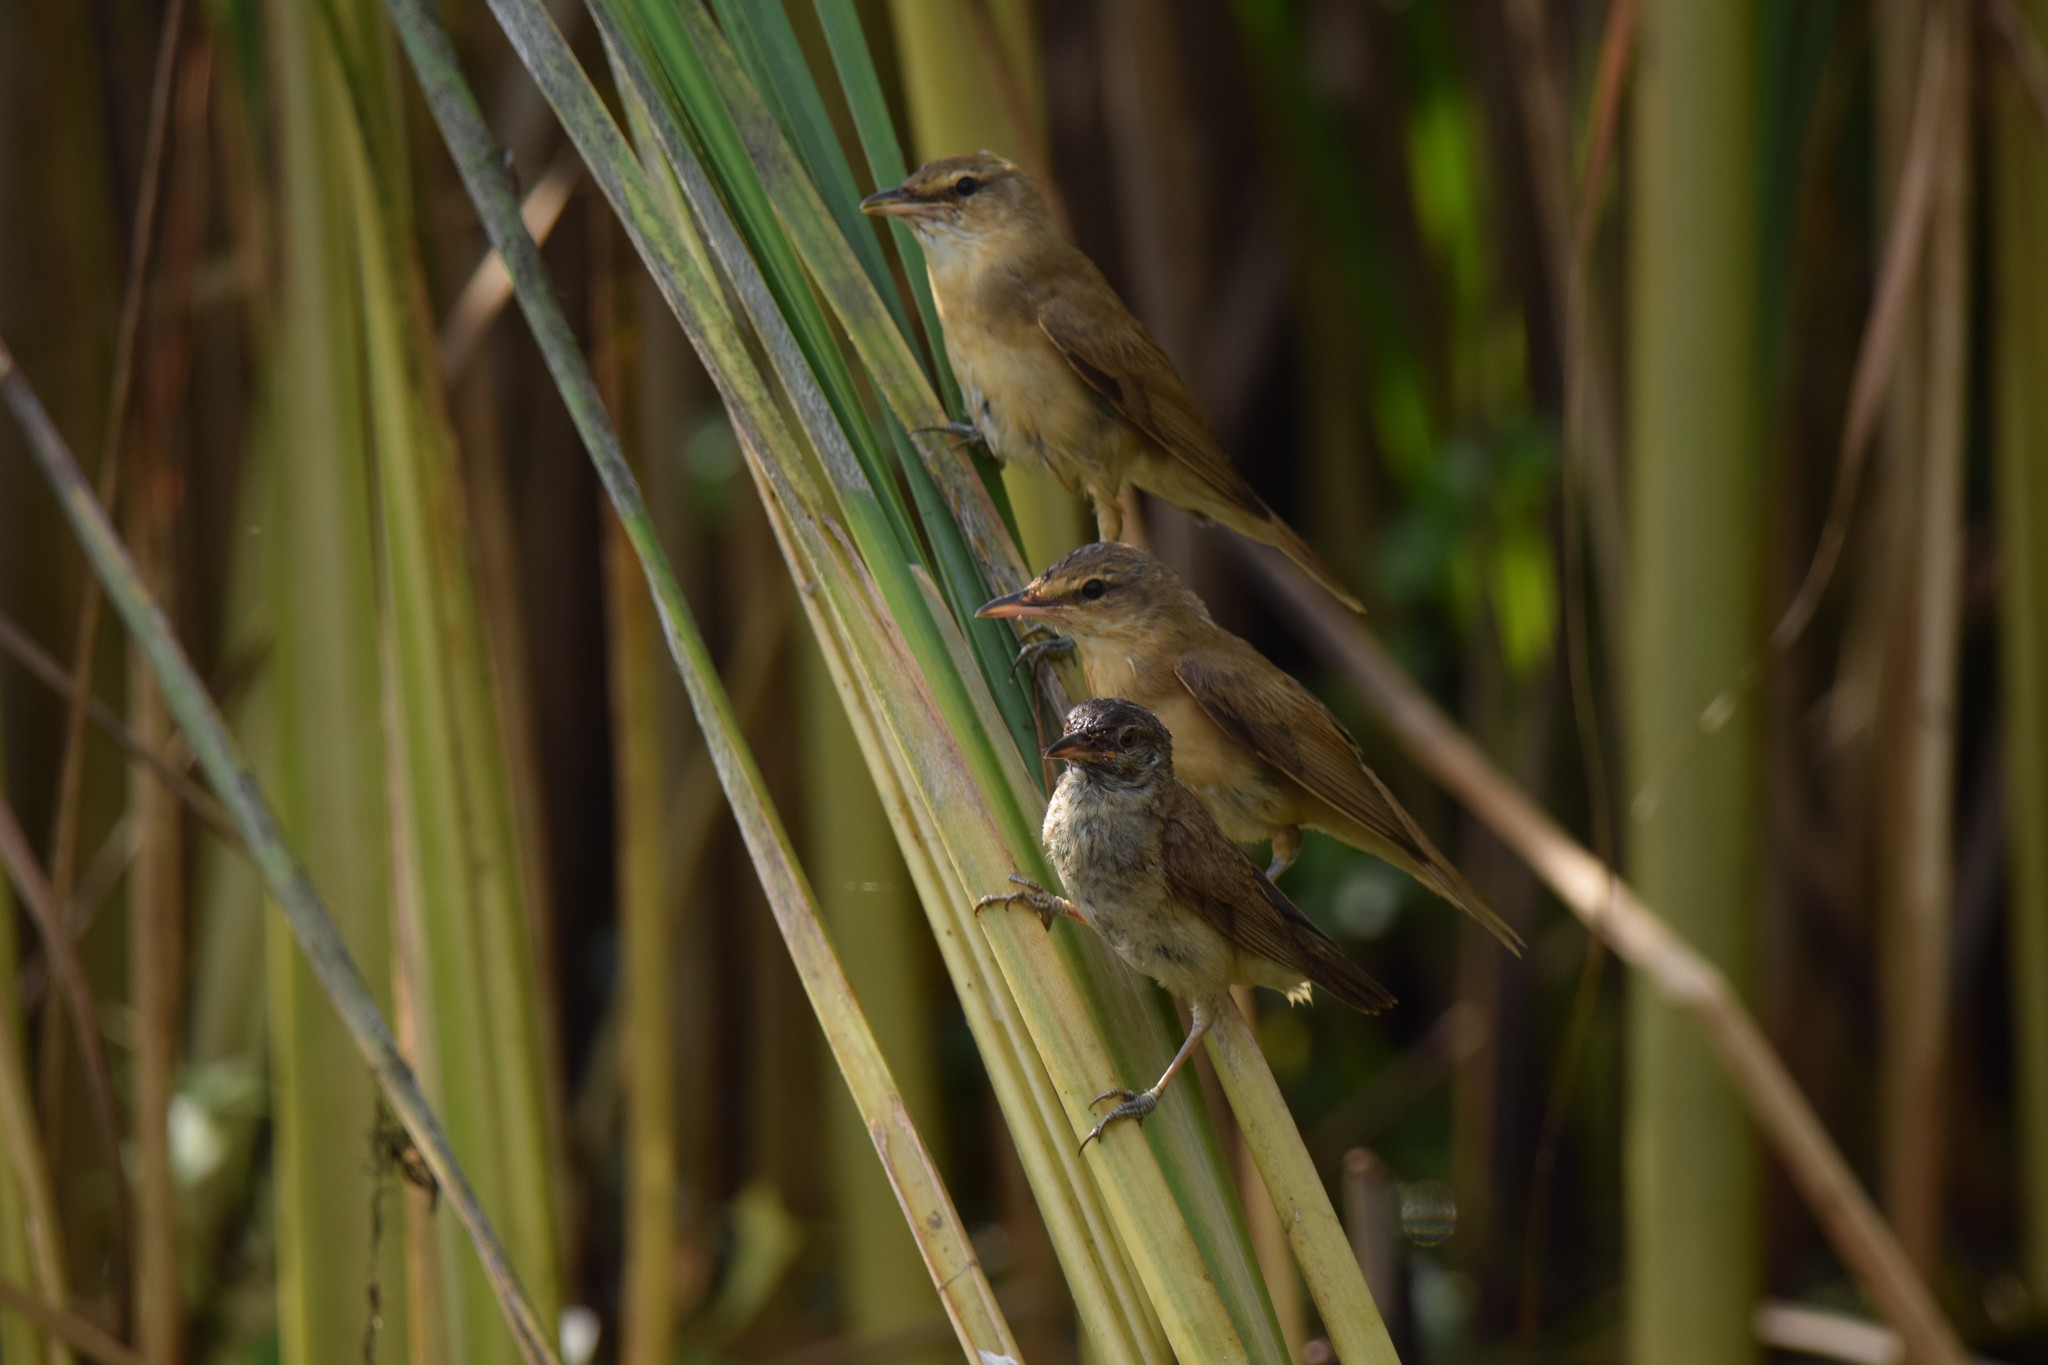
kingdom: Animalia
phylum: Chordata
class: Aves
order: Passeriformes
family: Acrocephalidae
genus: Acrocephalus
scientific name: Acrocephalus arundinaceus
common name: Great reed warbler
